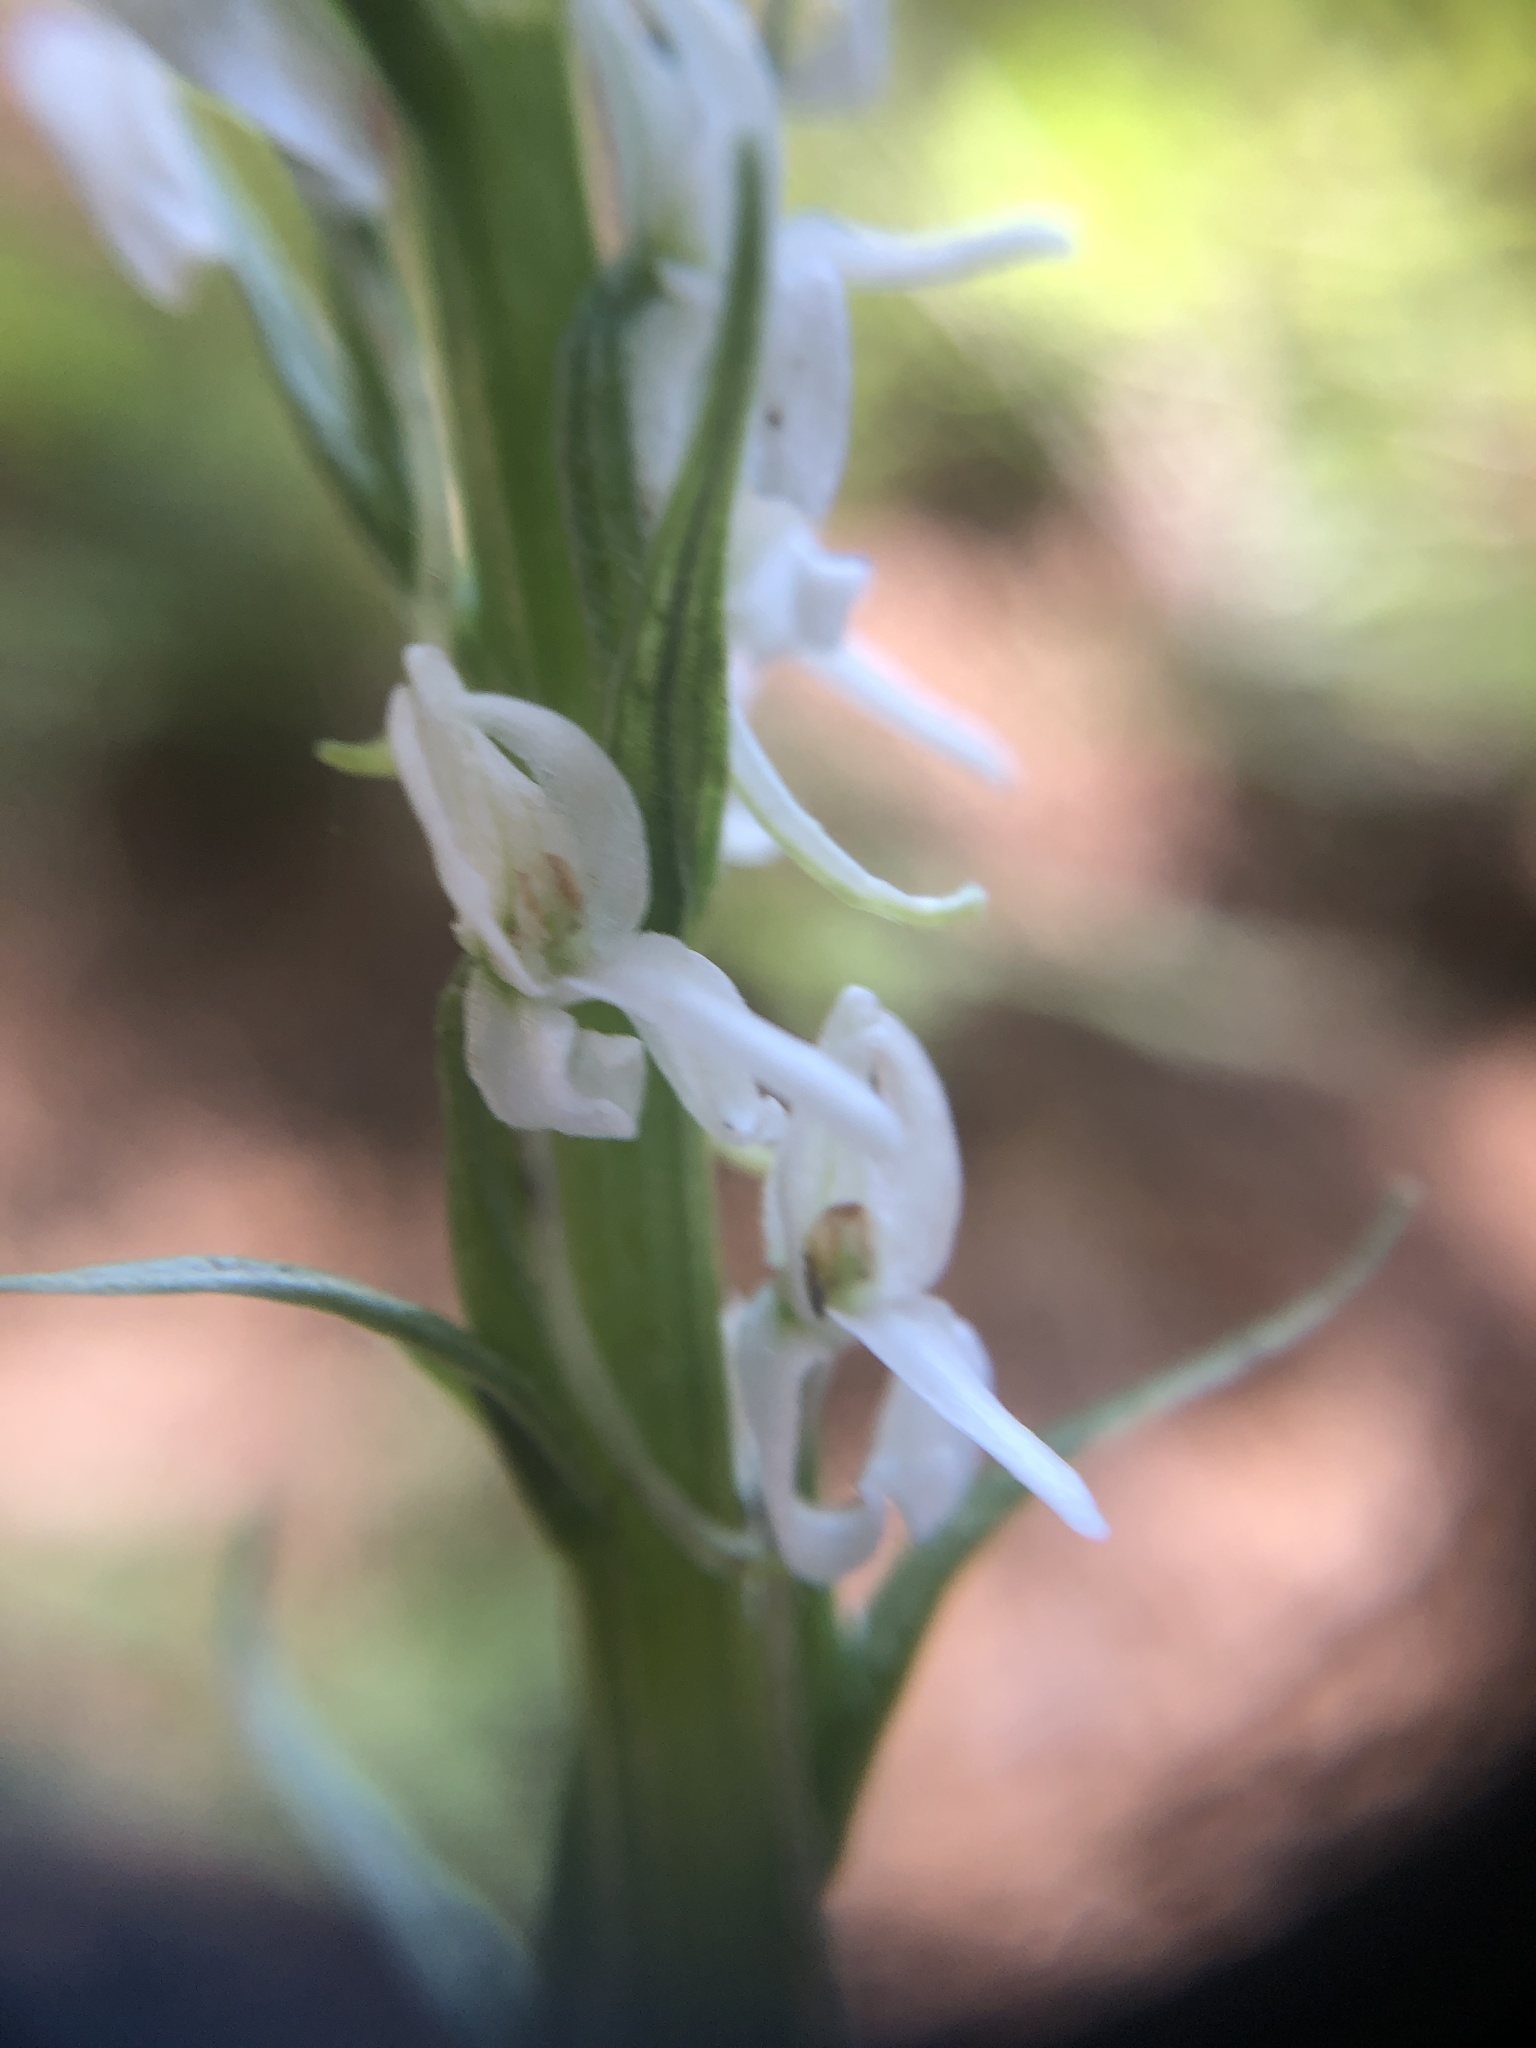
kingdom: Plantae
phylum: Tracheophyta
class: Liliopsida
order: Asparagales
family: Orchidaceae
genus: Platanthera
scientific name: Platanthera dilatata
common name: Bog candles
